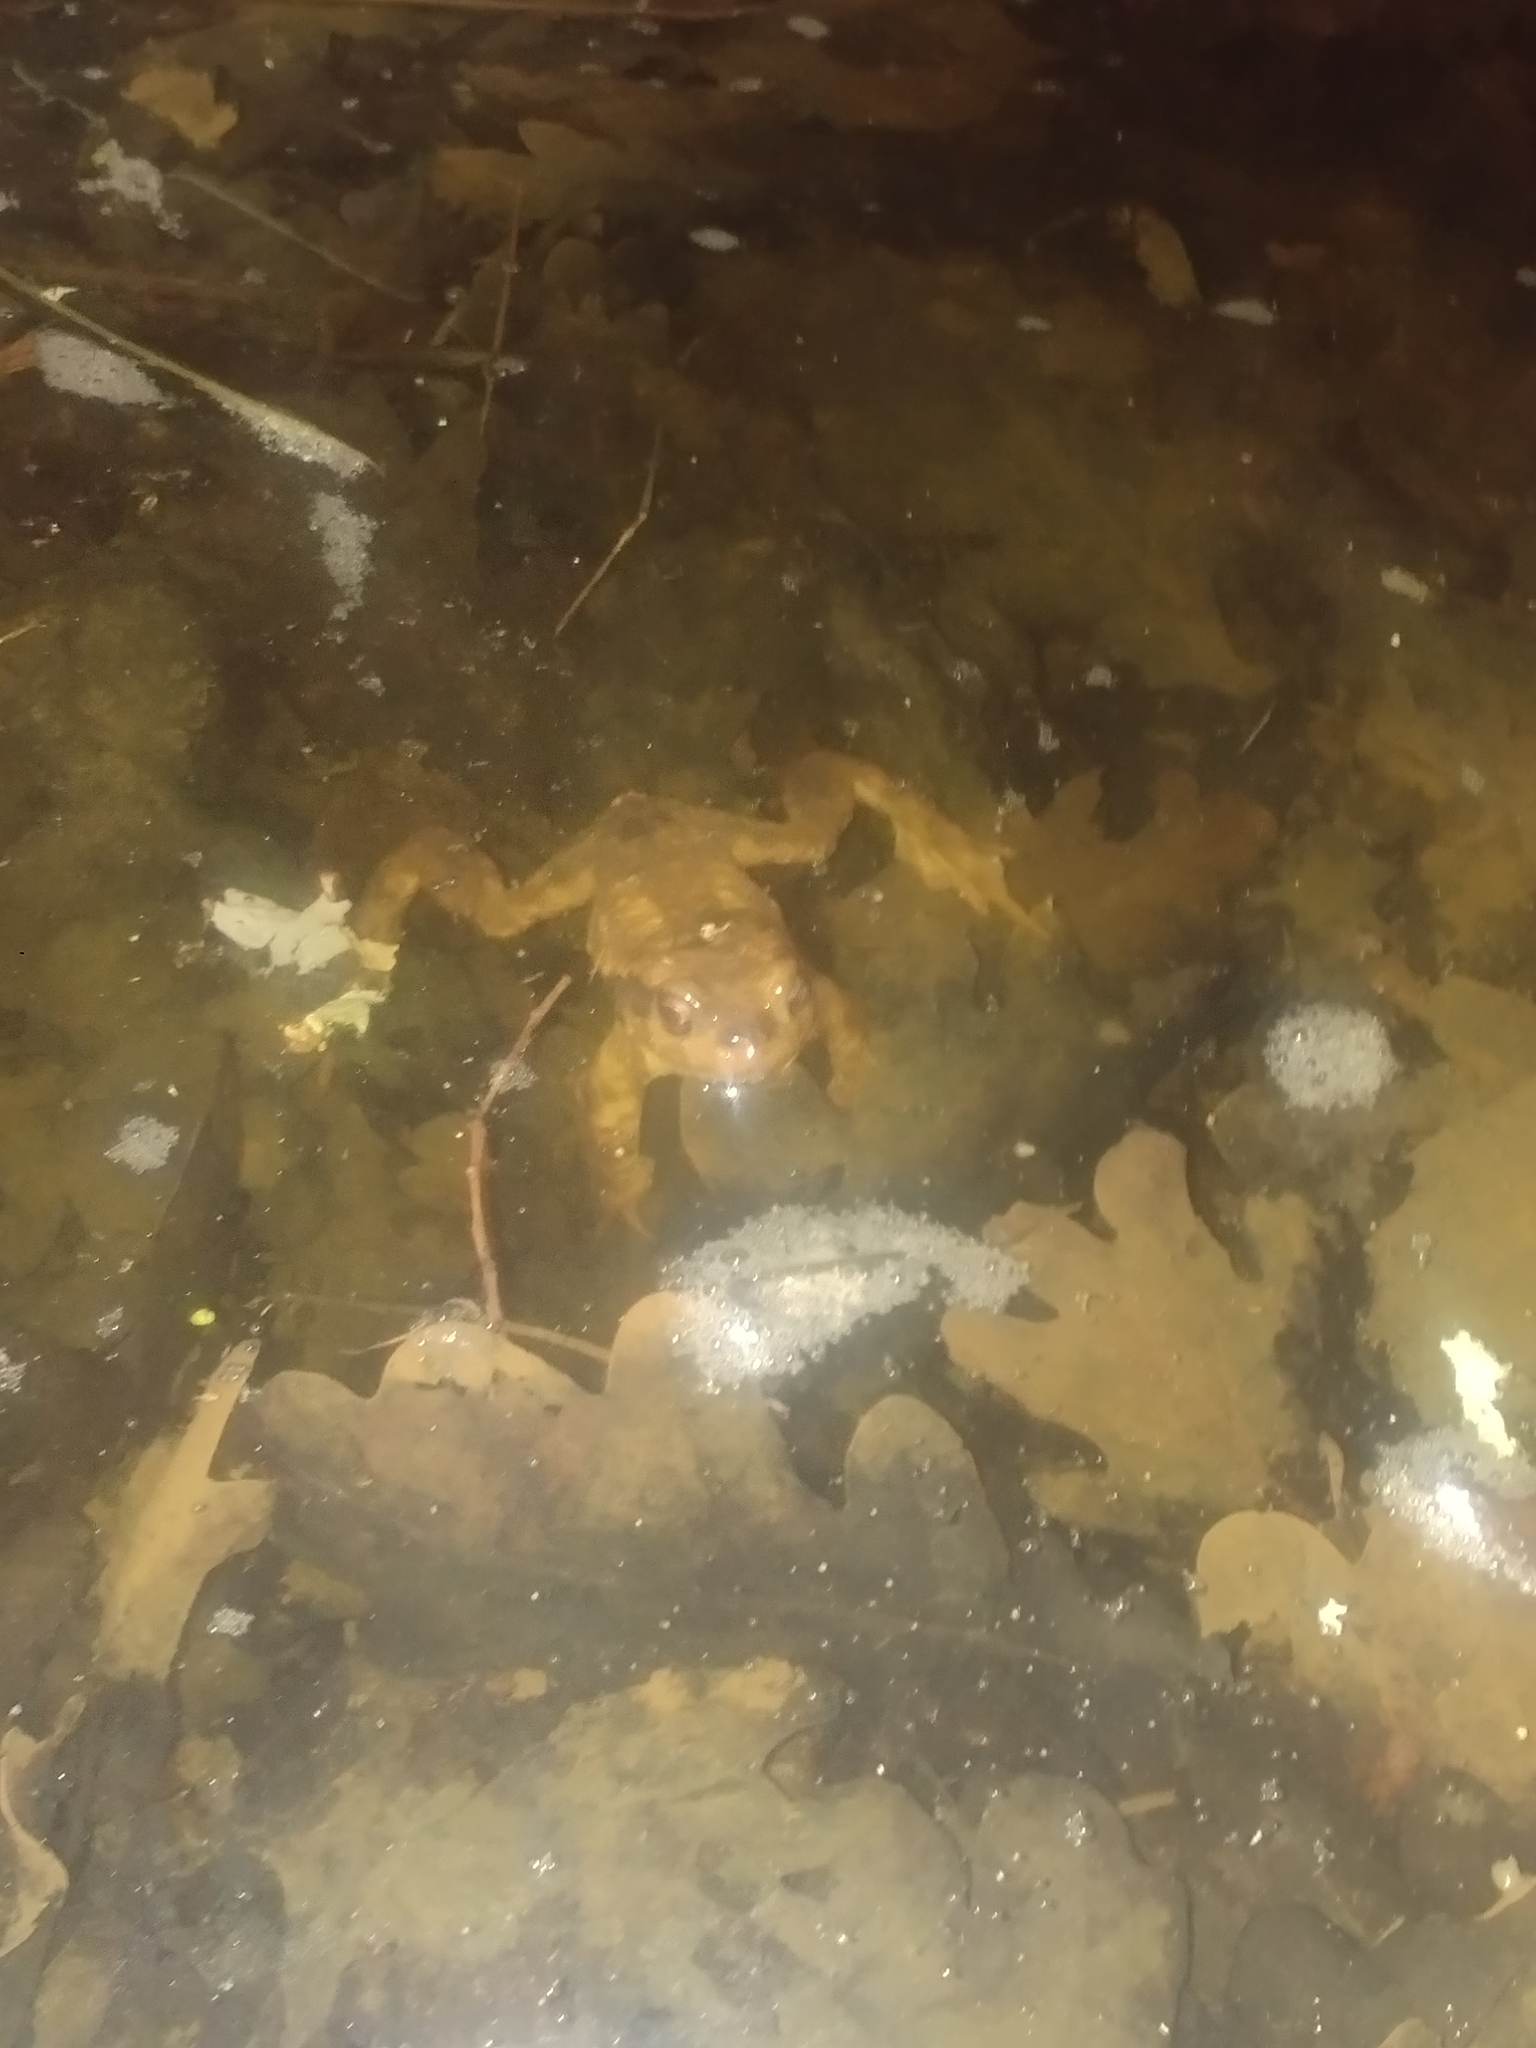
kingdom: Animalia
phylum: Chordata
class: Amphibia
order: Anura
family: Bufonidae
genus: Bufo
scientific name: Bufo spinosus
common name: Western common toad
